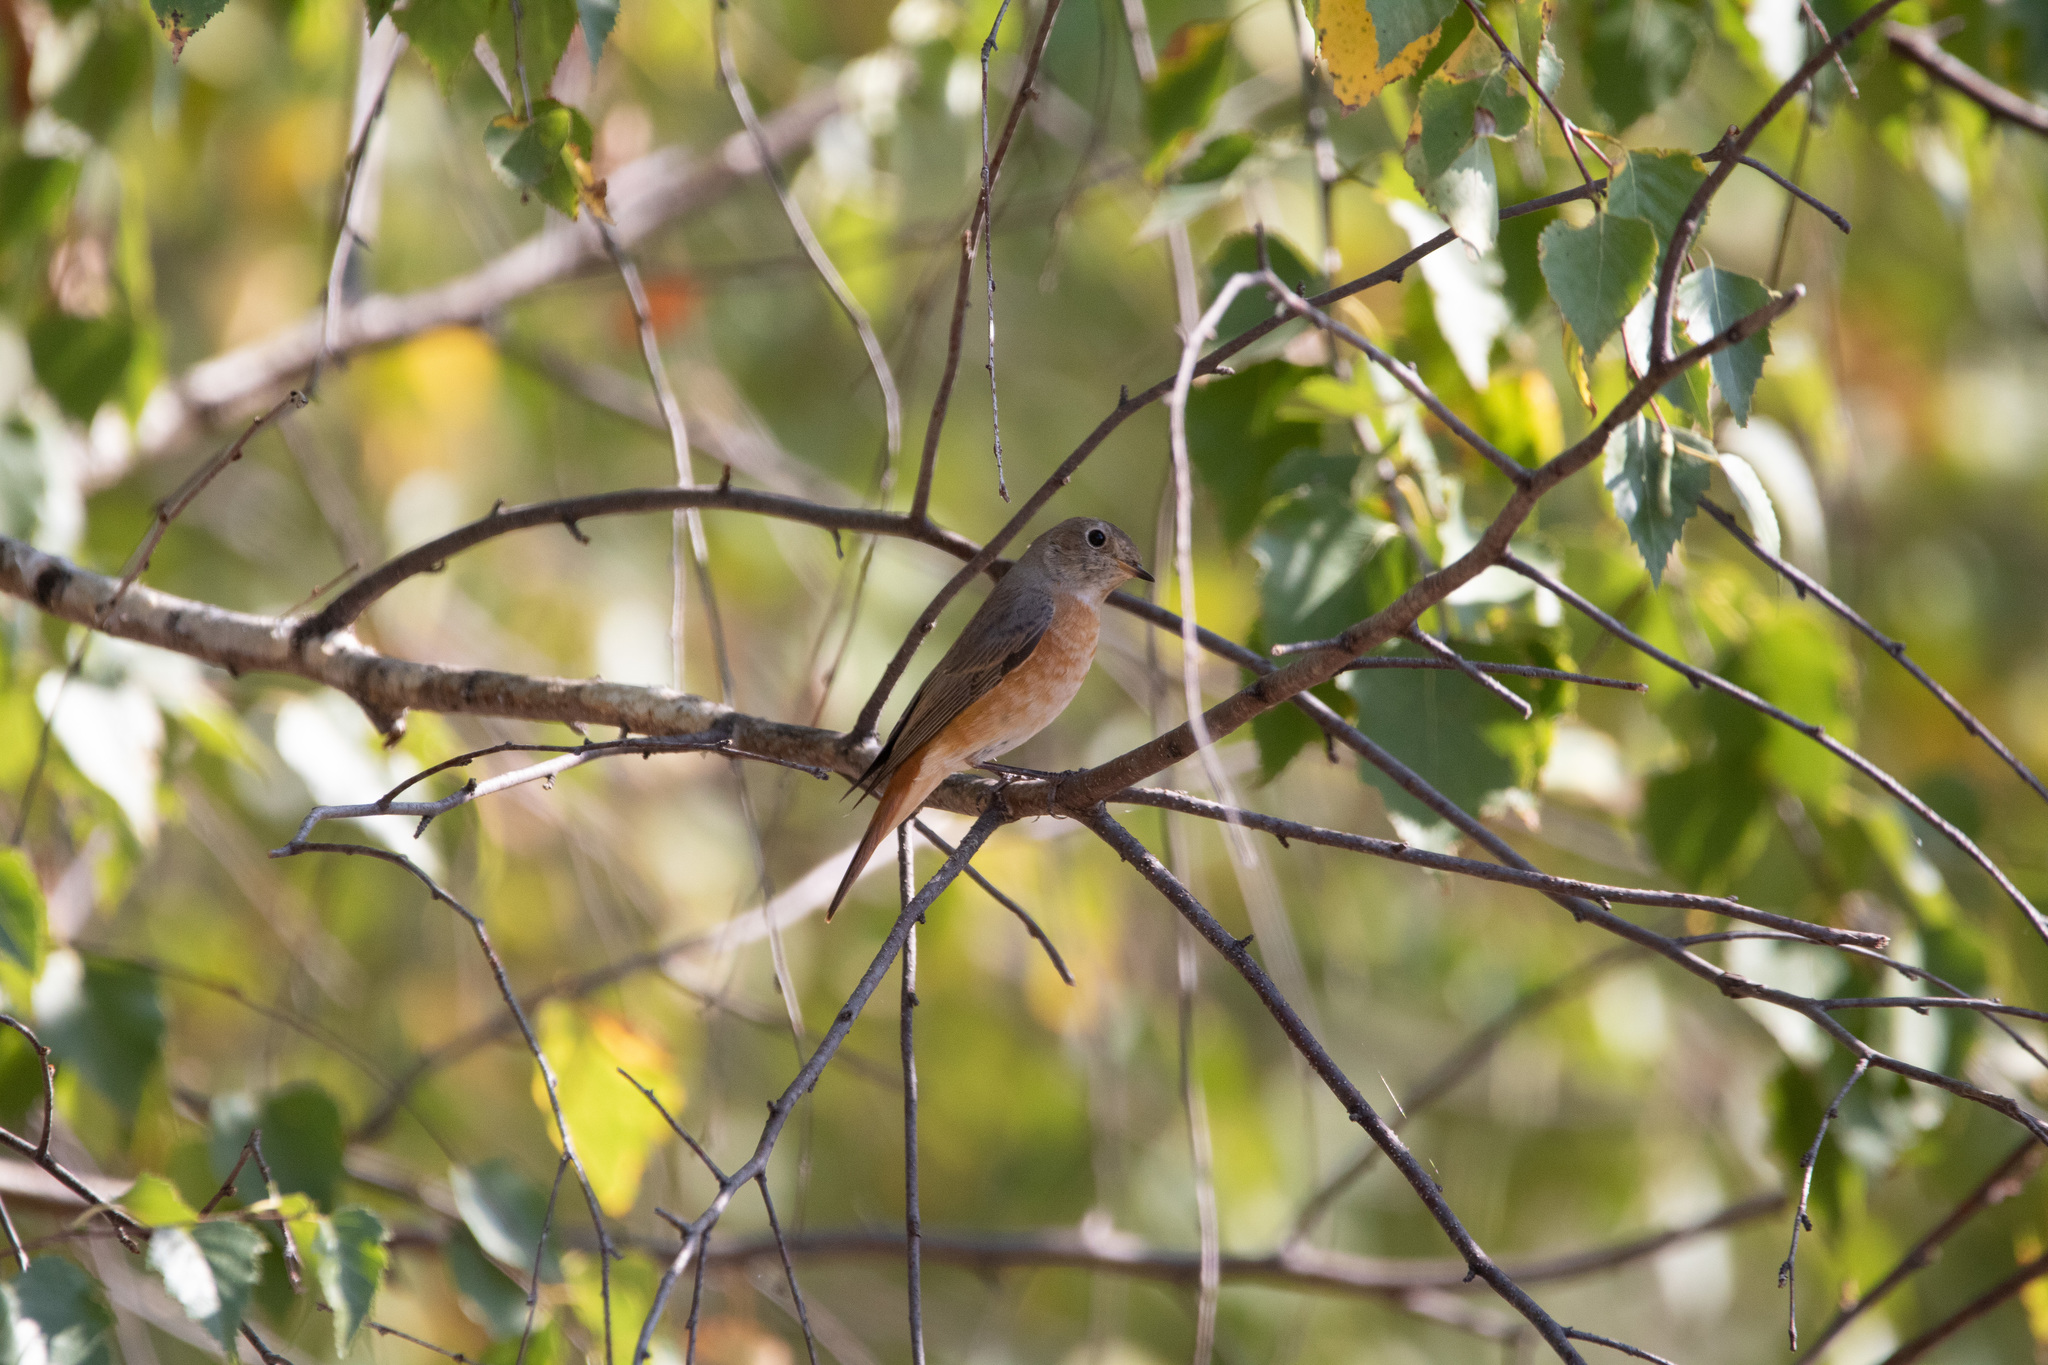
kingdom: Animalia
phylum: Chordata
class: Aves
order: Passeriformes
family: Muscicapidae
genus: Phoenicurus
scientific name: Phoenicurus phoenicurus
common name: Common redstart
